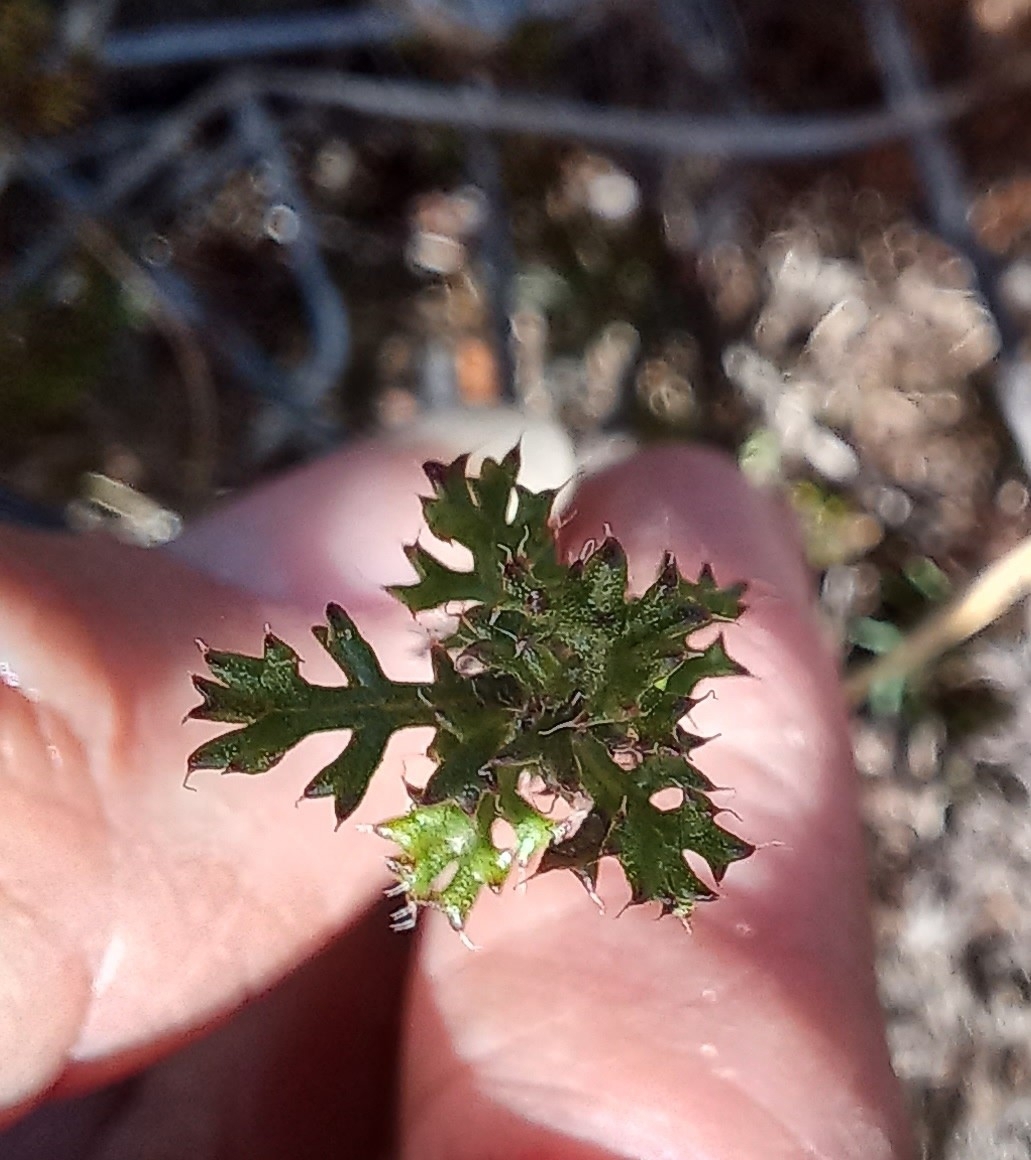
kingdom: Plantae
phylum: Tracheophyta
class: Magnoliopsida
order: Asterales
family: Asteraceae
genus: Ursinia
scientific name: Ursinia dentata
